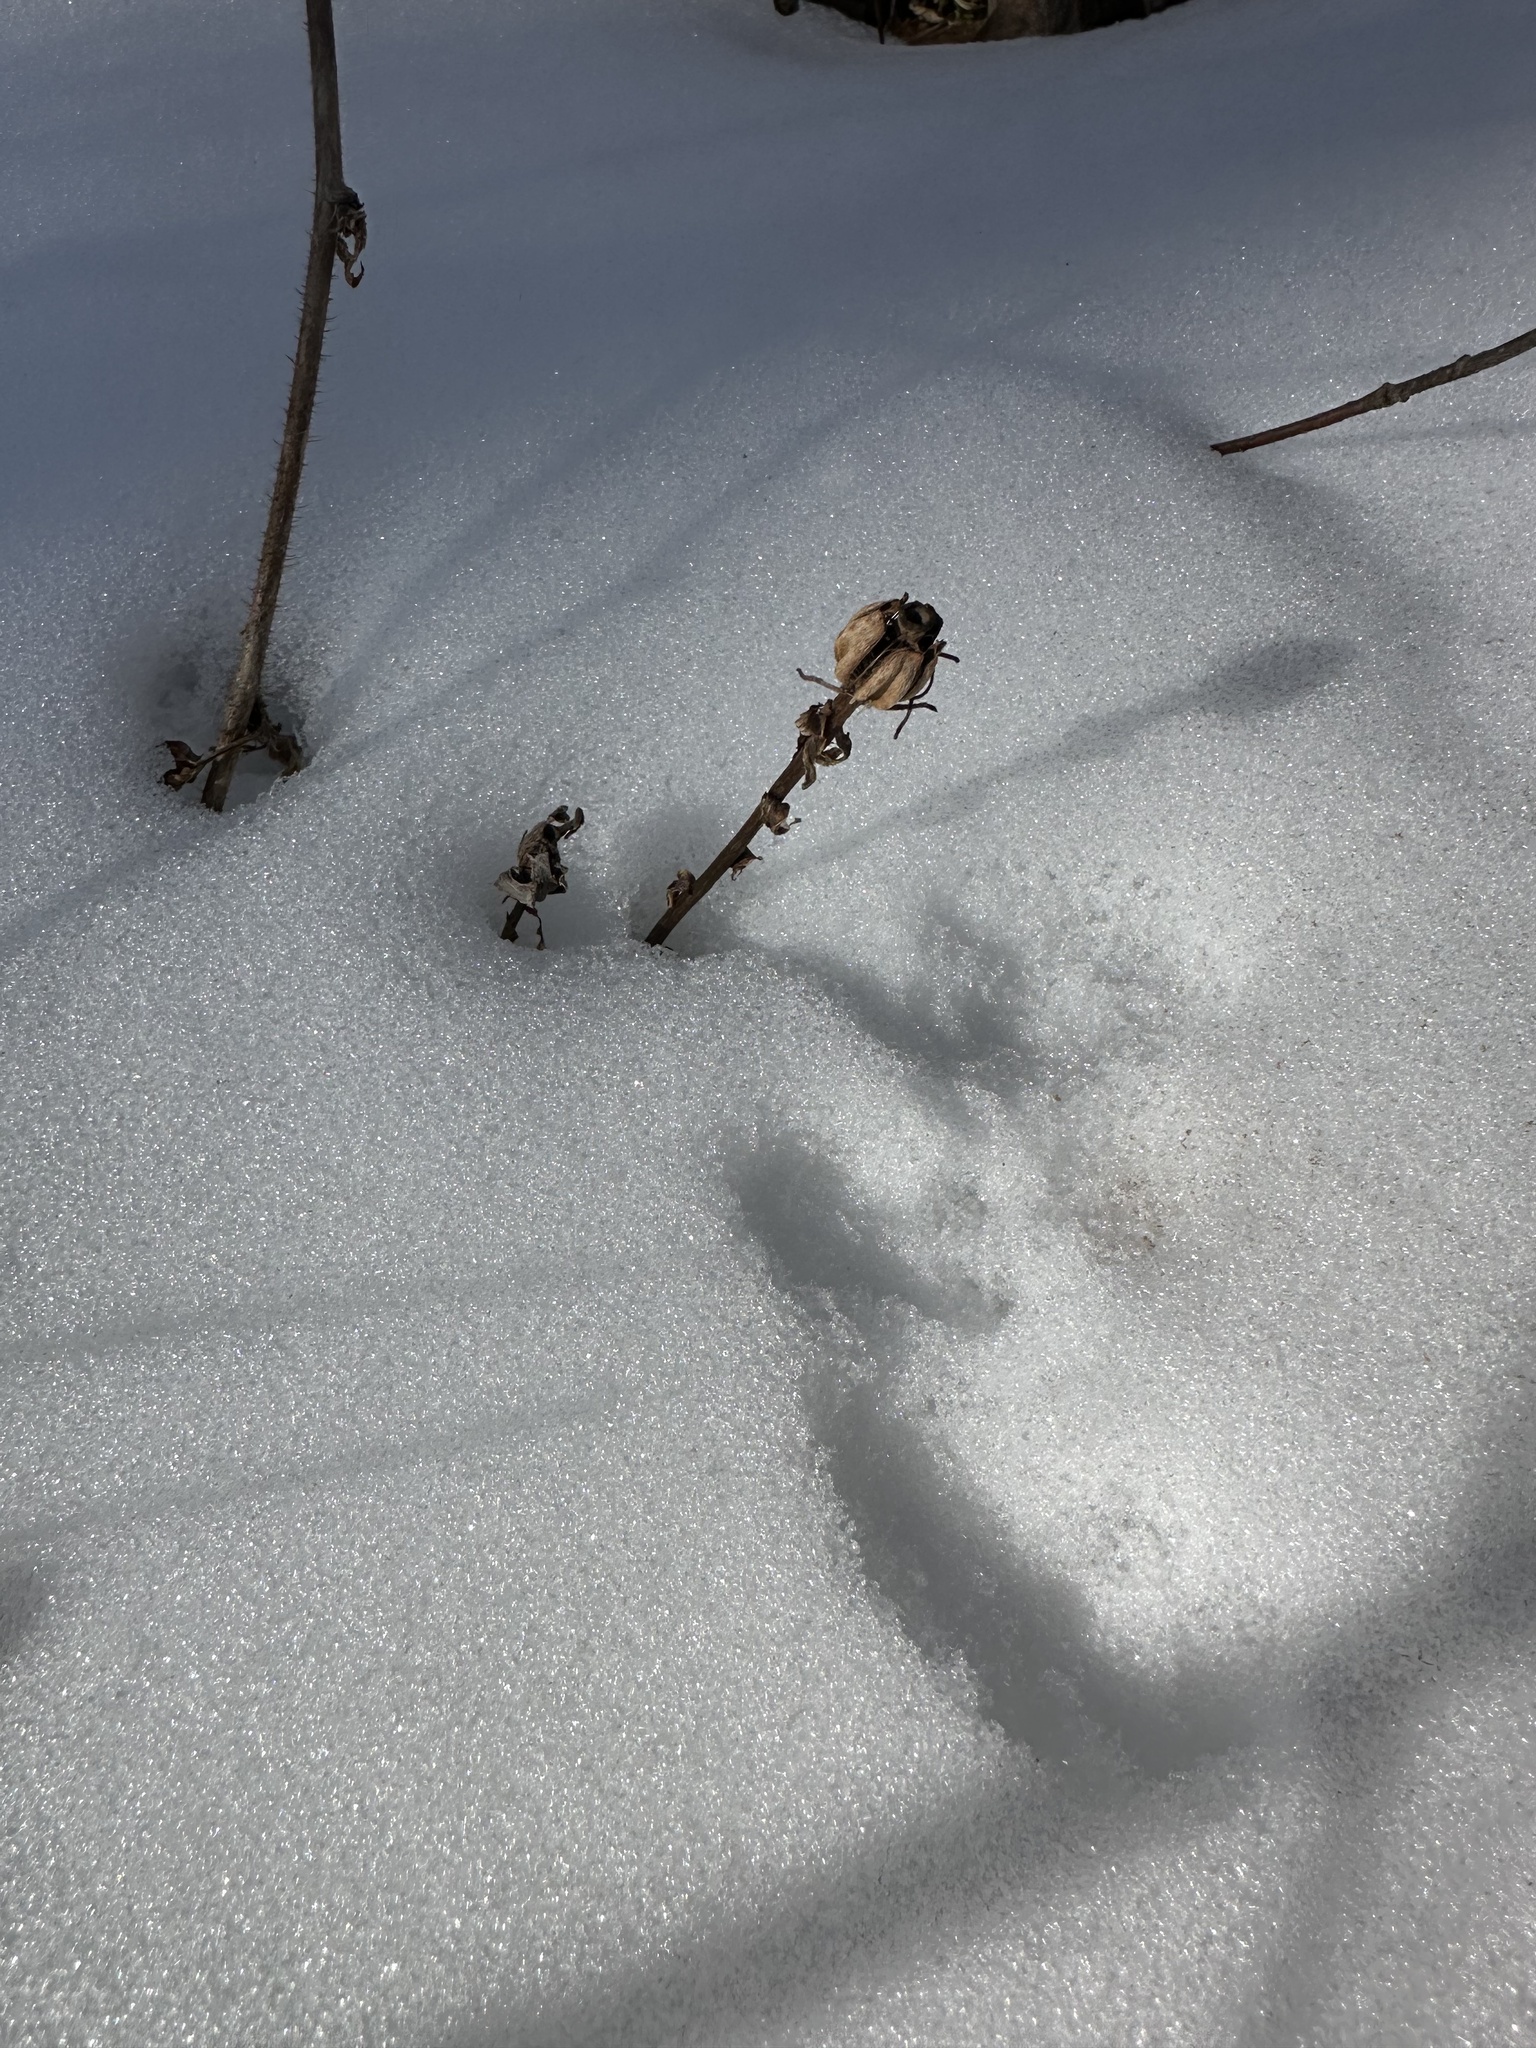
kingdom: Plantae
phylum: Tracheophyta
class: Magnoliopsida
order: Ericales
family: Ericaceae
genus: Monotropa
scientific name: Monotropa uniflora
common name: Convulsion root
